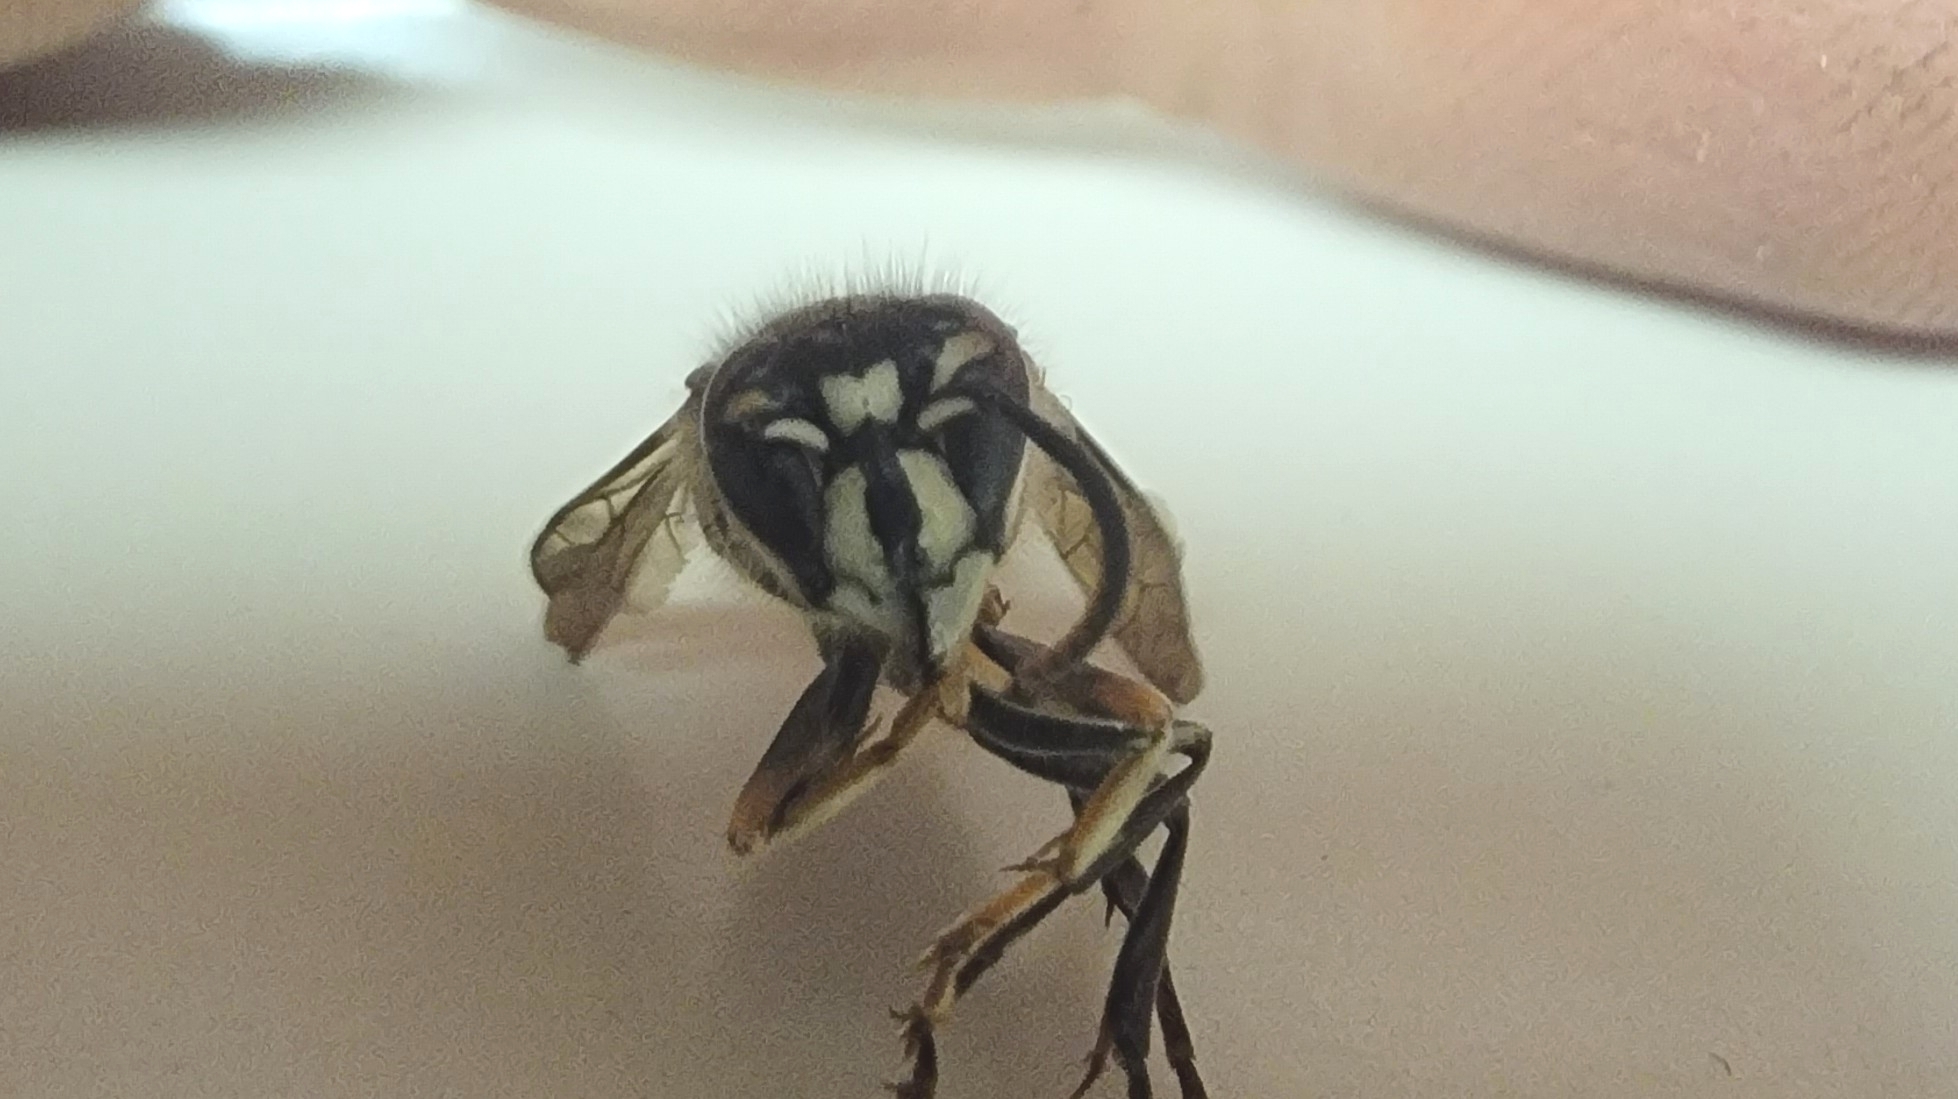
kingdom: Animalia
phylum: Arthropoda
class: Insecta
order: Hymenoptera
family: Vespidae
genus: Dolichovespula
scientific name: Dolichovespula maculata
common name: Bald-faced hornet
